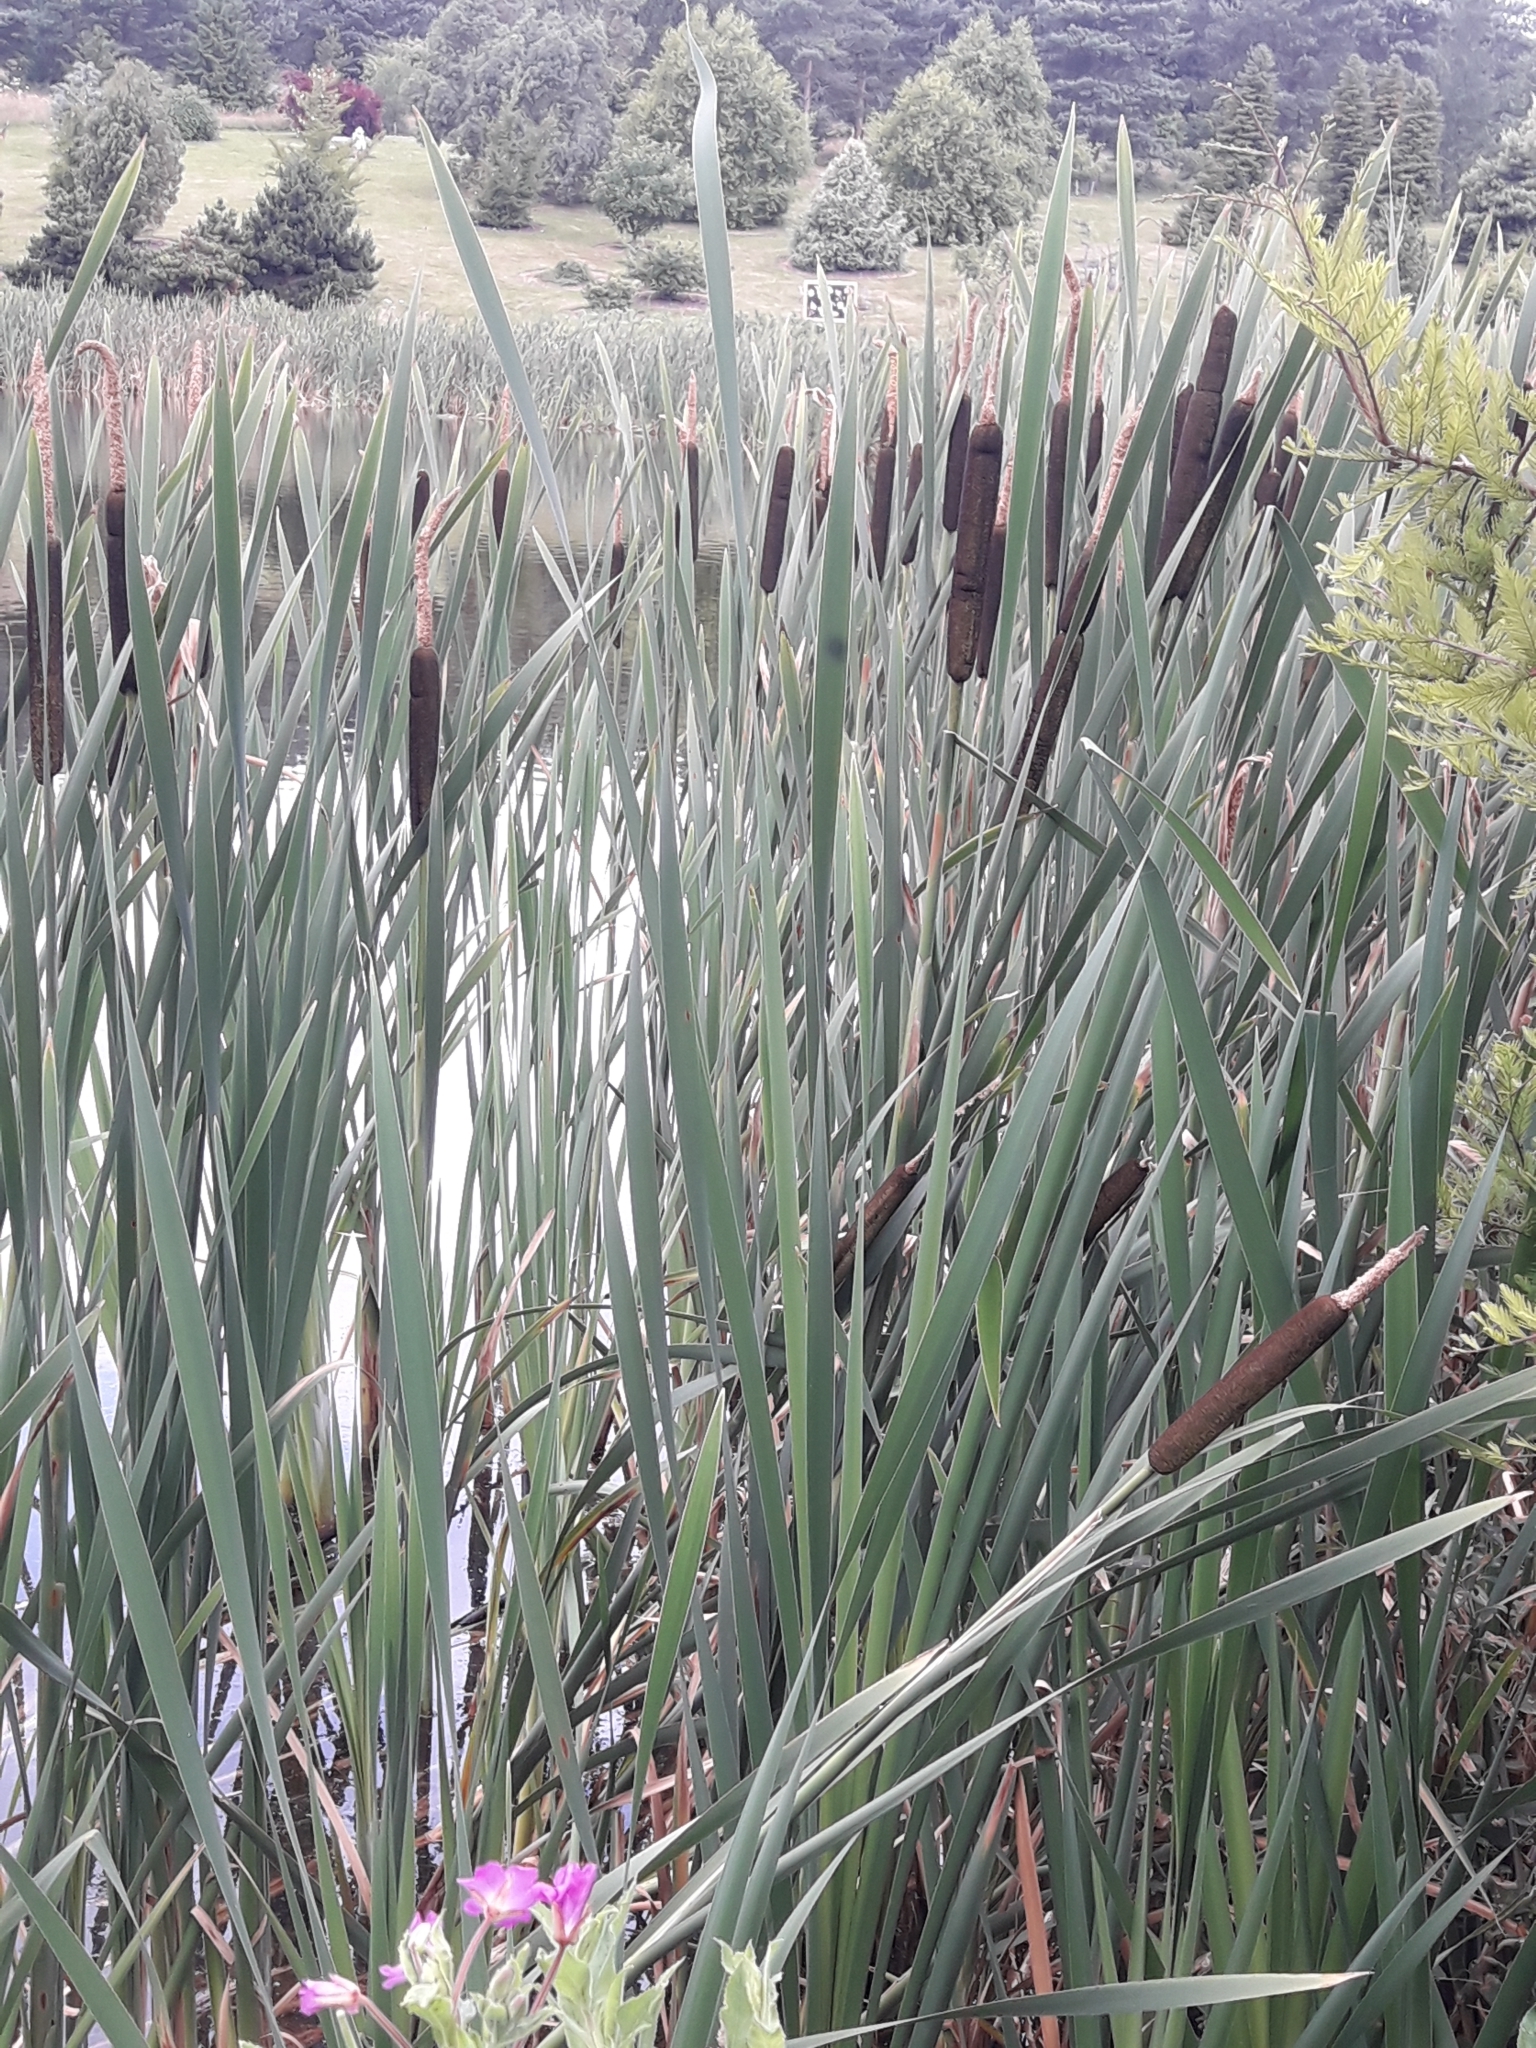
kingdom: Plantae
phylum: Tracheophyta
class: Liliopsida
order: Poales
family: Typhaceae
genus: Typha
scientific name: Typha latifolia
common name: Broadleaf cattail
